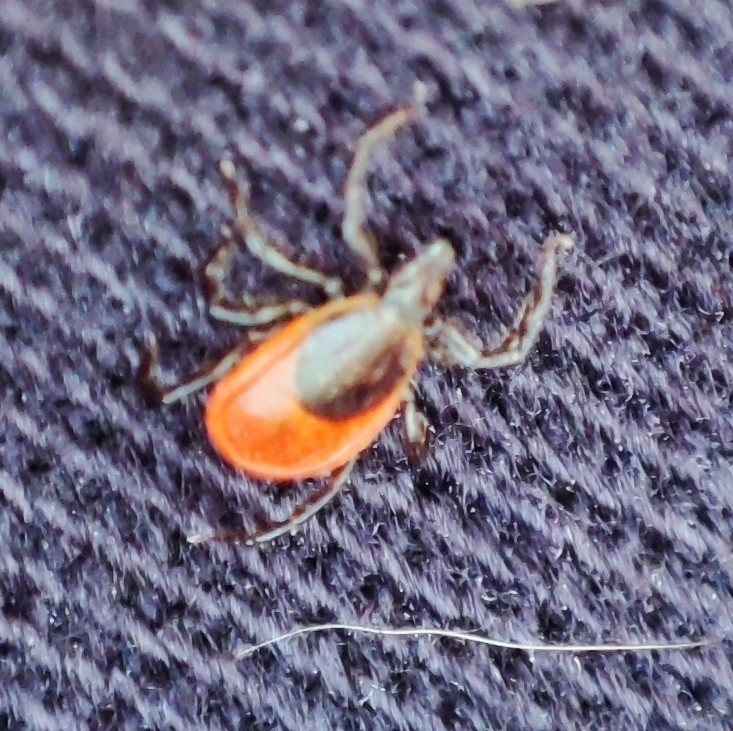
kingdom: Animalia
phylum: Arthropoda
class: Arachnida
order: Ixodida
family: Ixodidae
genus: Ixodes
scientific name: Ixodes persulcatus
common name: Taiga tick
